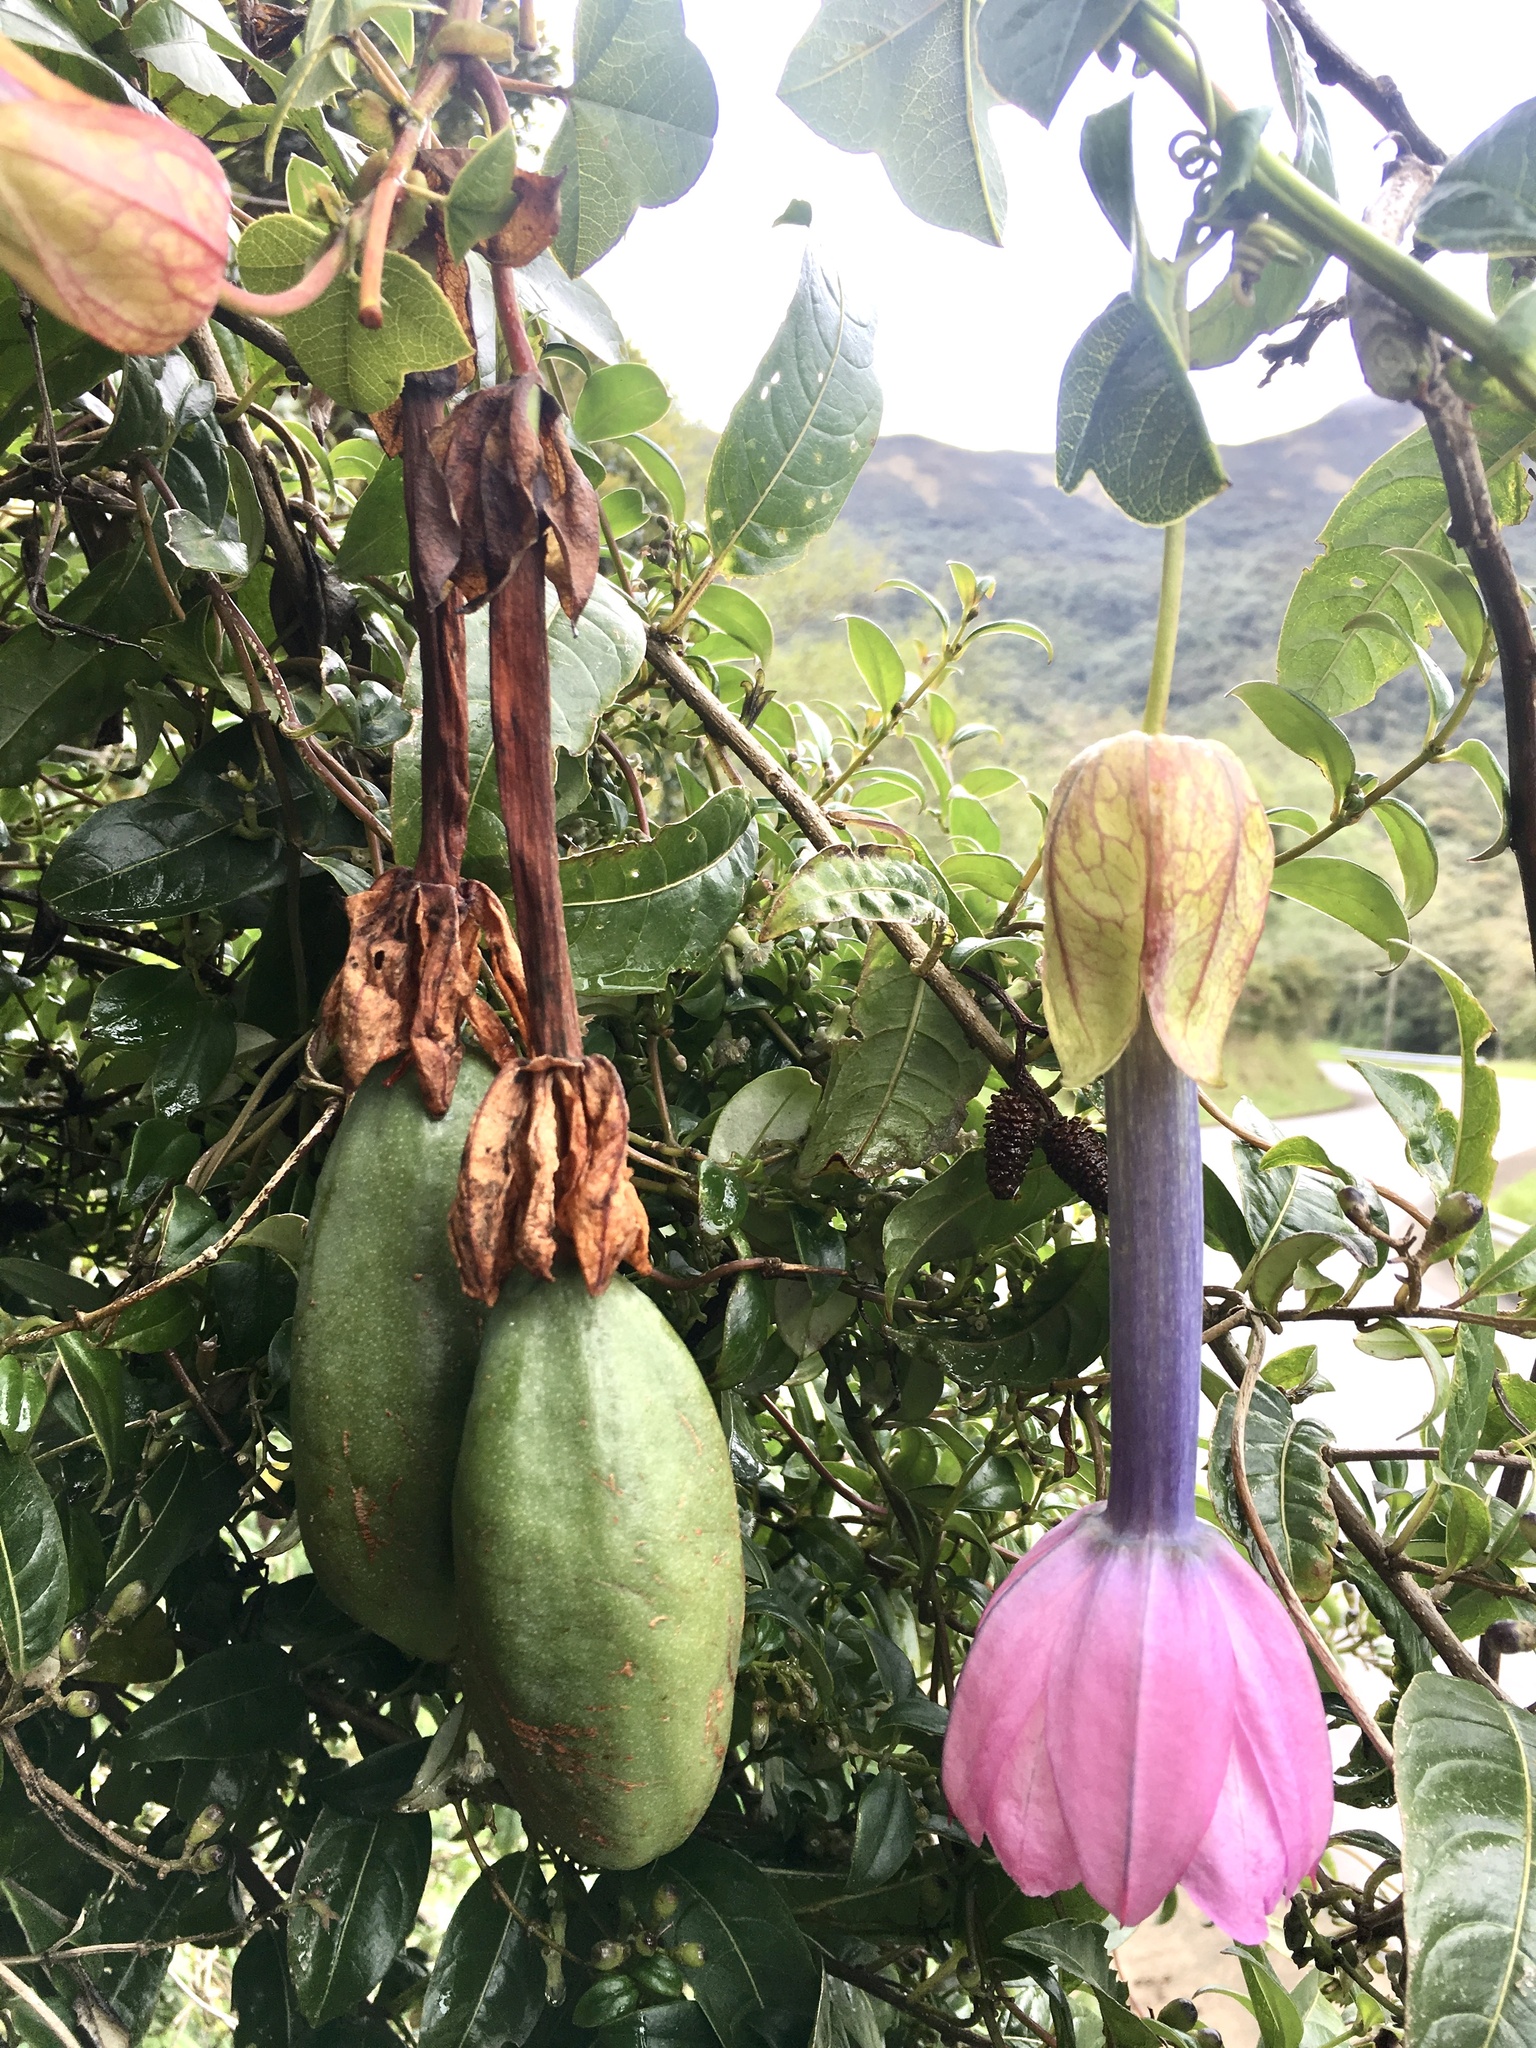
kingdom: Plantae
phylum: Tracheophyta
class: Magnoliopsida
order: Malpighiales
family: Passifloraceae
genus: Passiflora
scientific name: Passiflora cumbalensis
